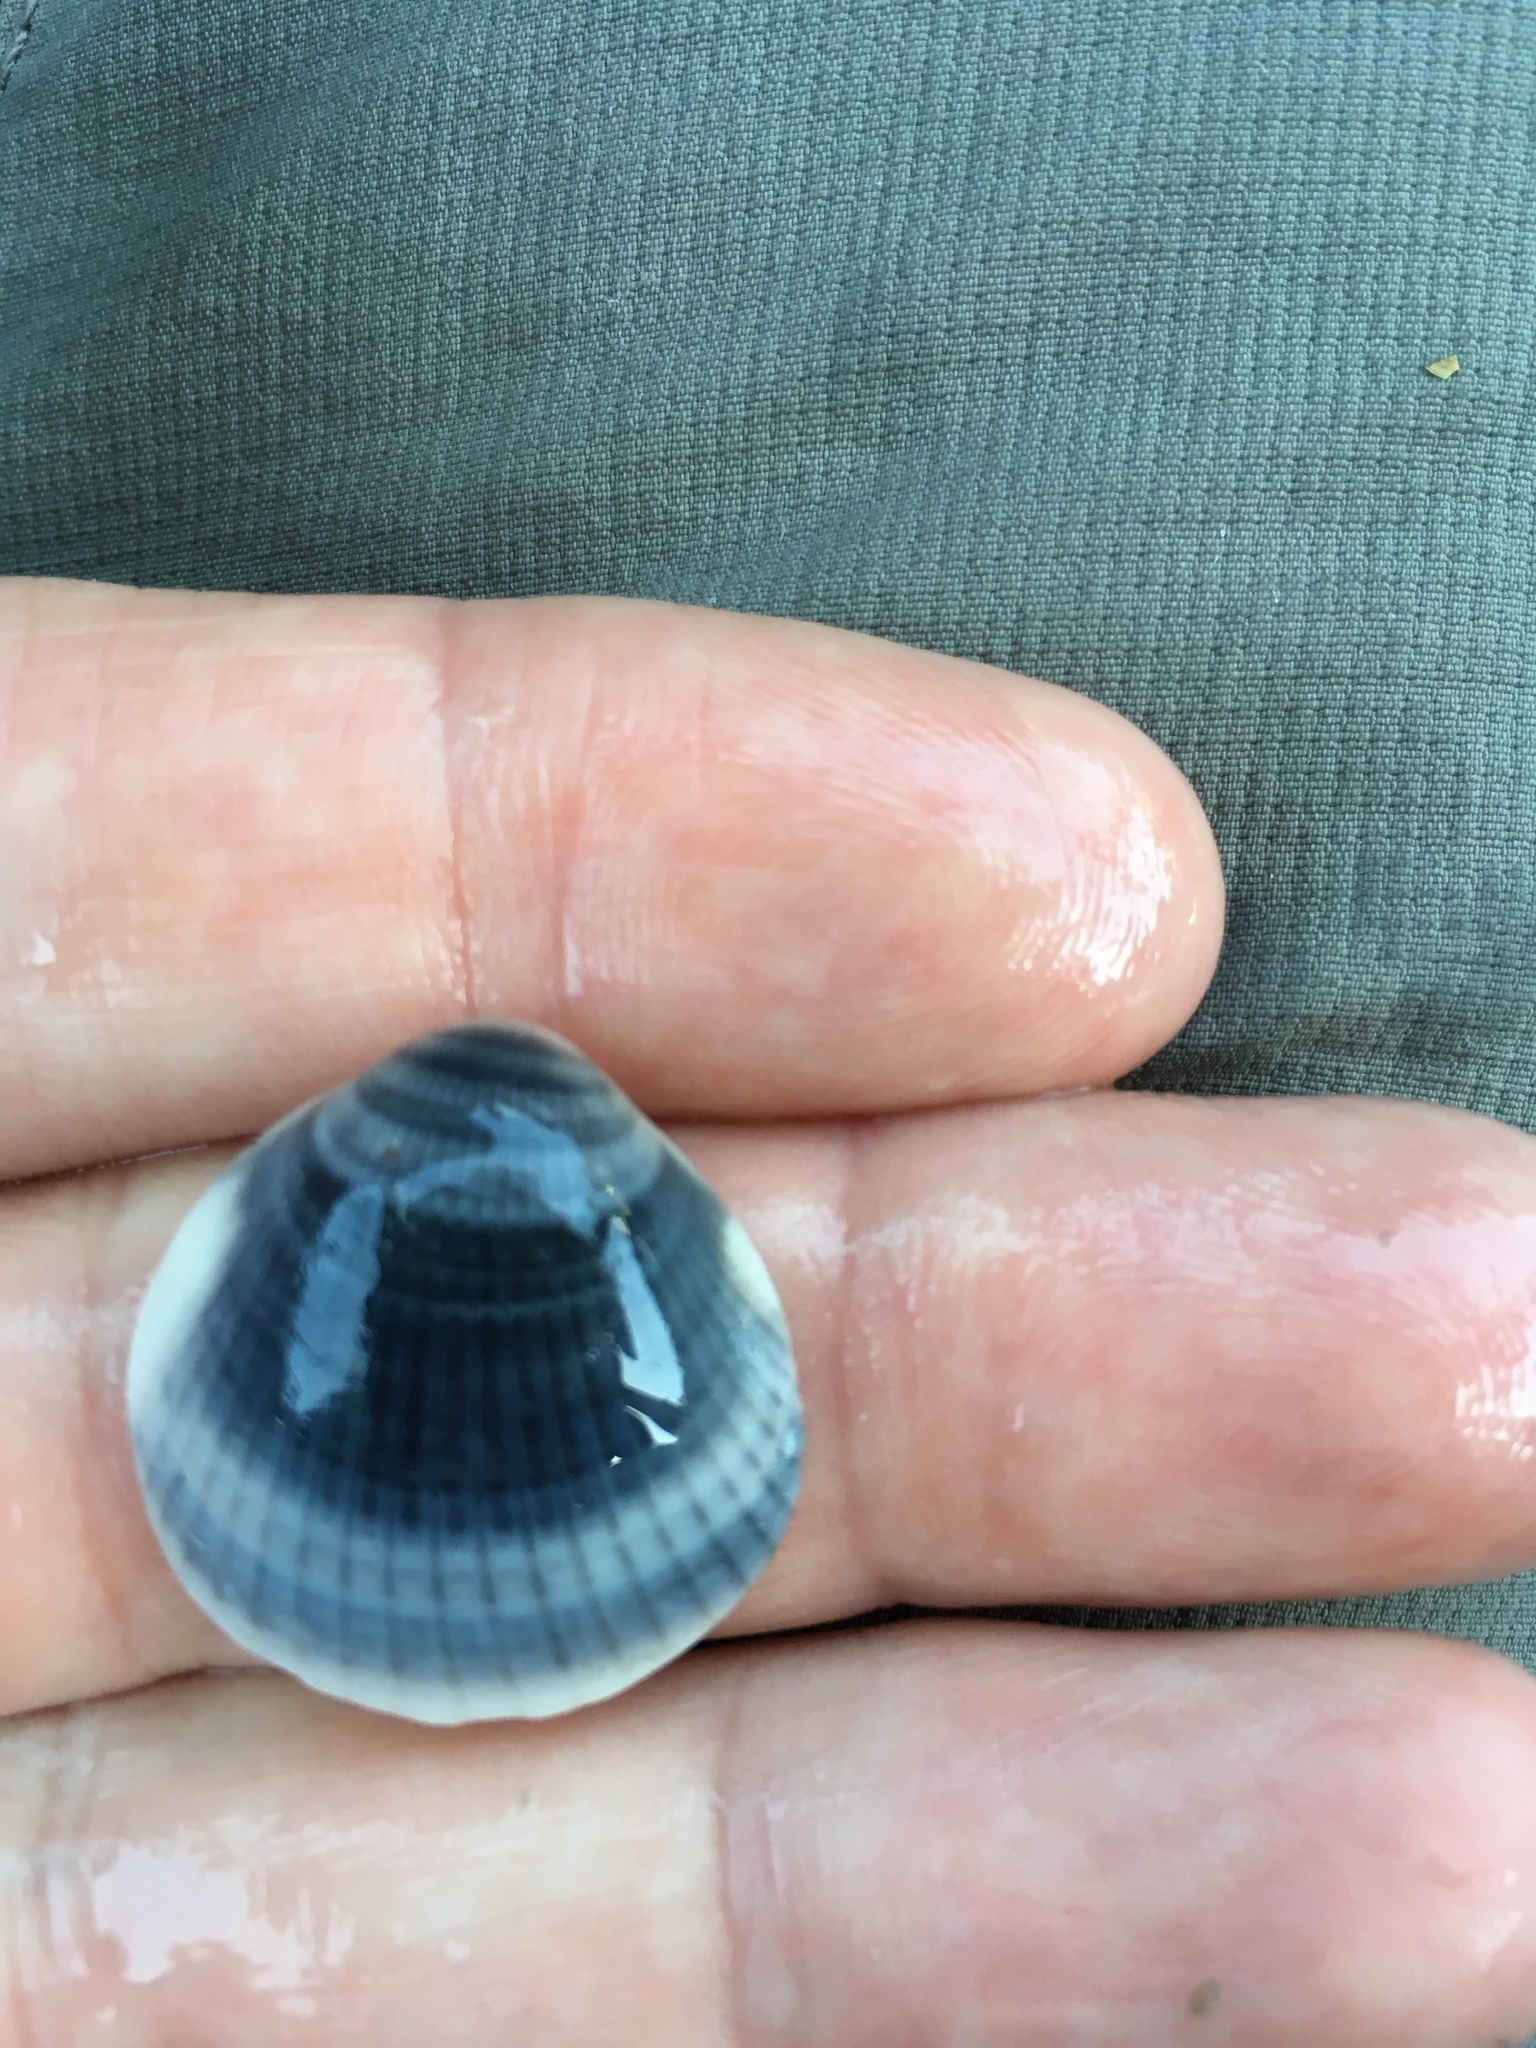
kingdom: Animalia
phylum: Mollusca
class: Bivalvia
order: Arcida
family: Glycymerididae
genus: Glycymeris
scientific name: Glycymeris spectralis
